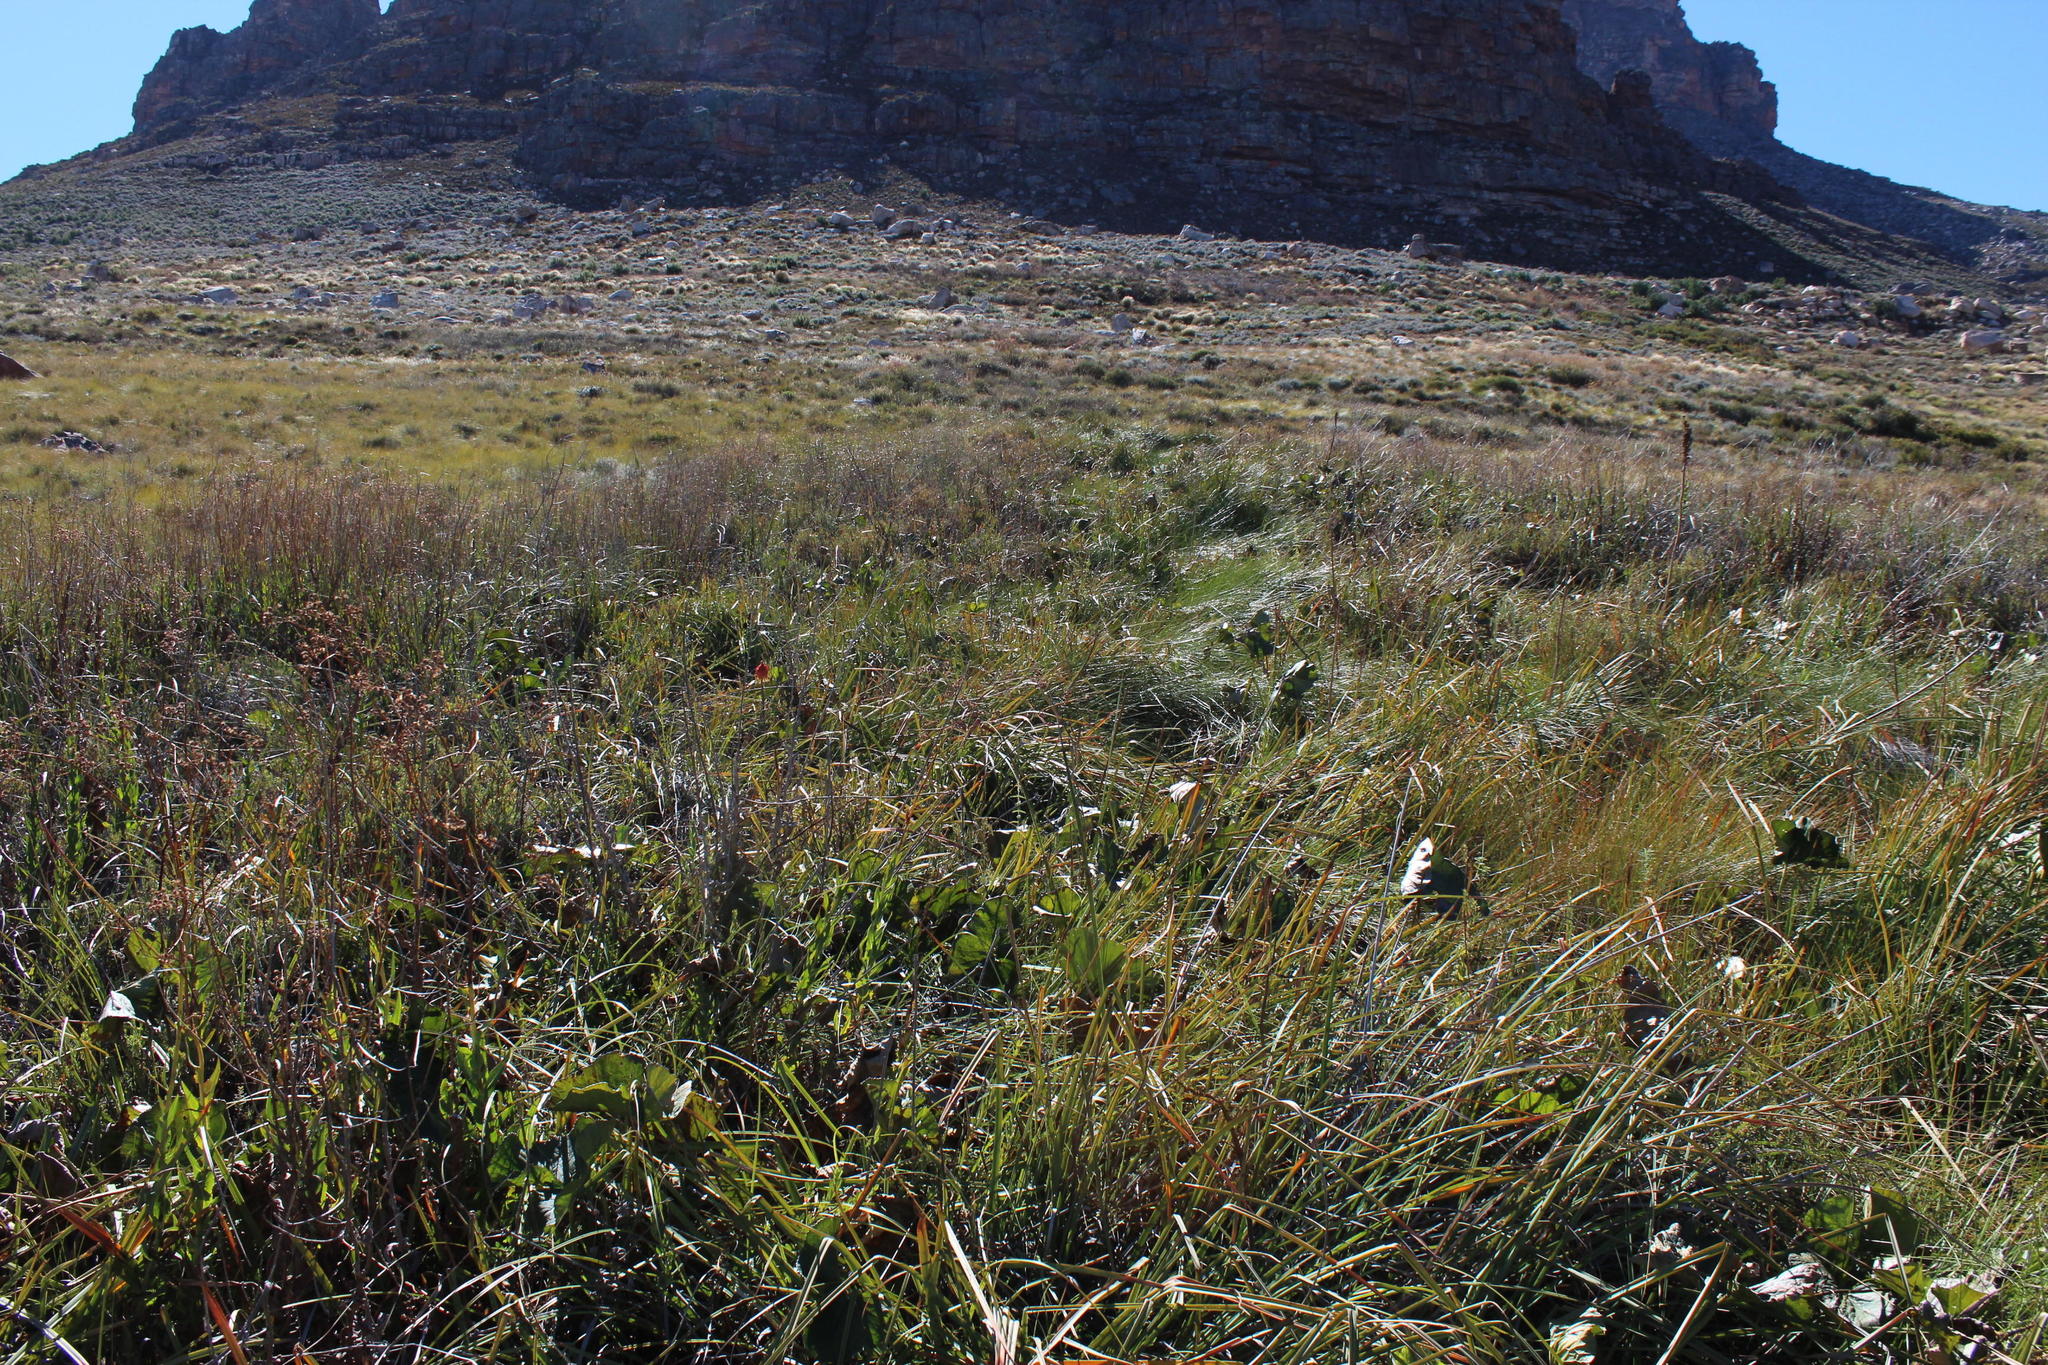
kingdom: Plantae
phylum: Tracheophyta
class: Magnoliopsida
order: Gunnerales
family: Gunneraceae
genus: Gunnera
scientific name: Gunnera perpensa
